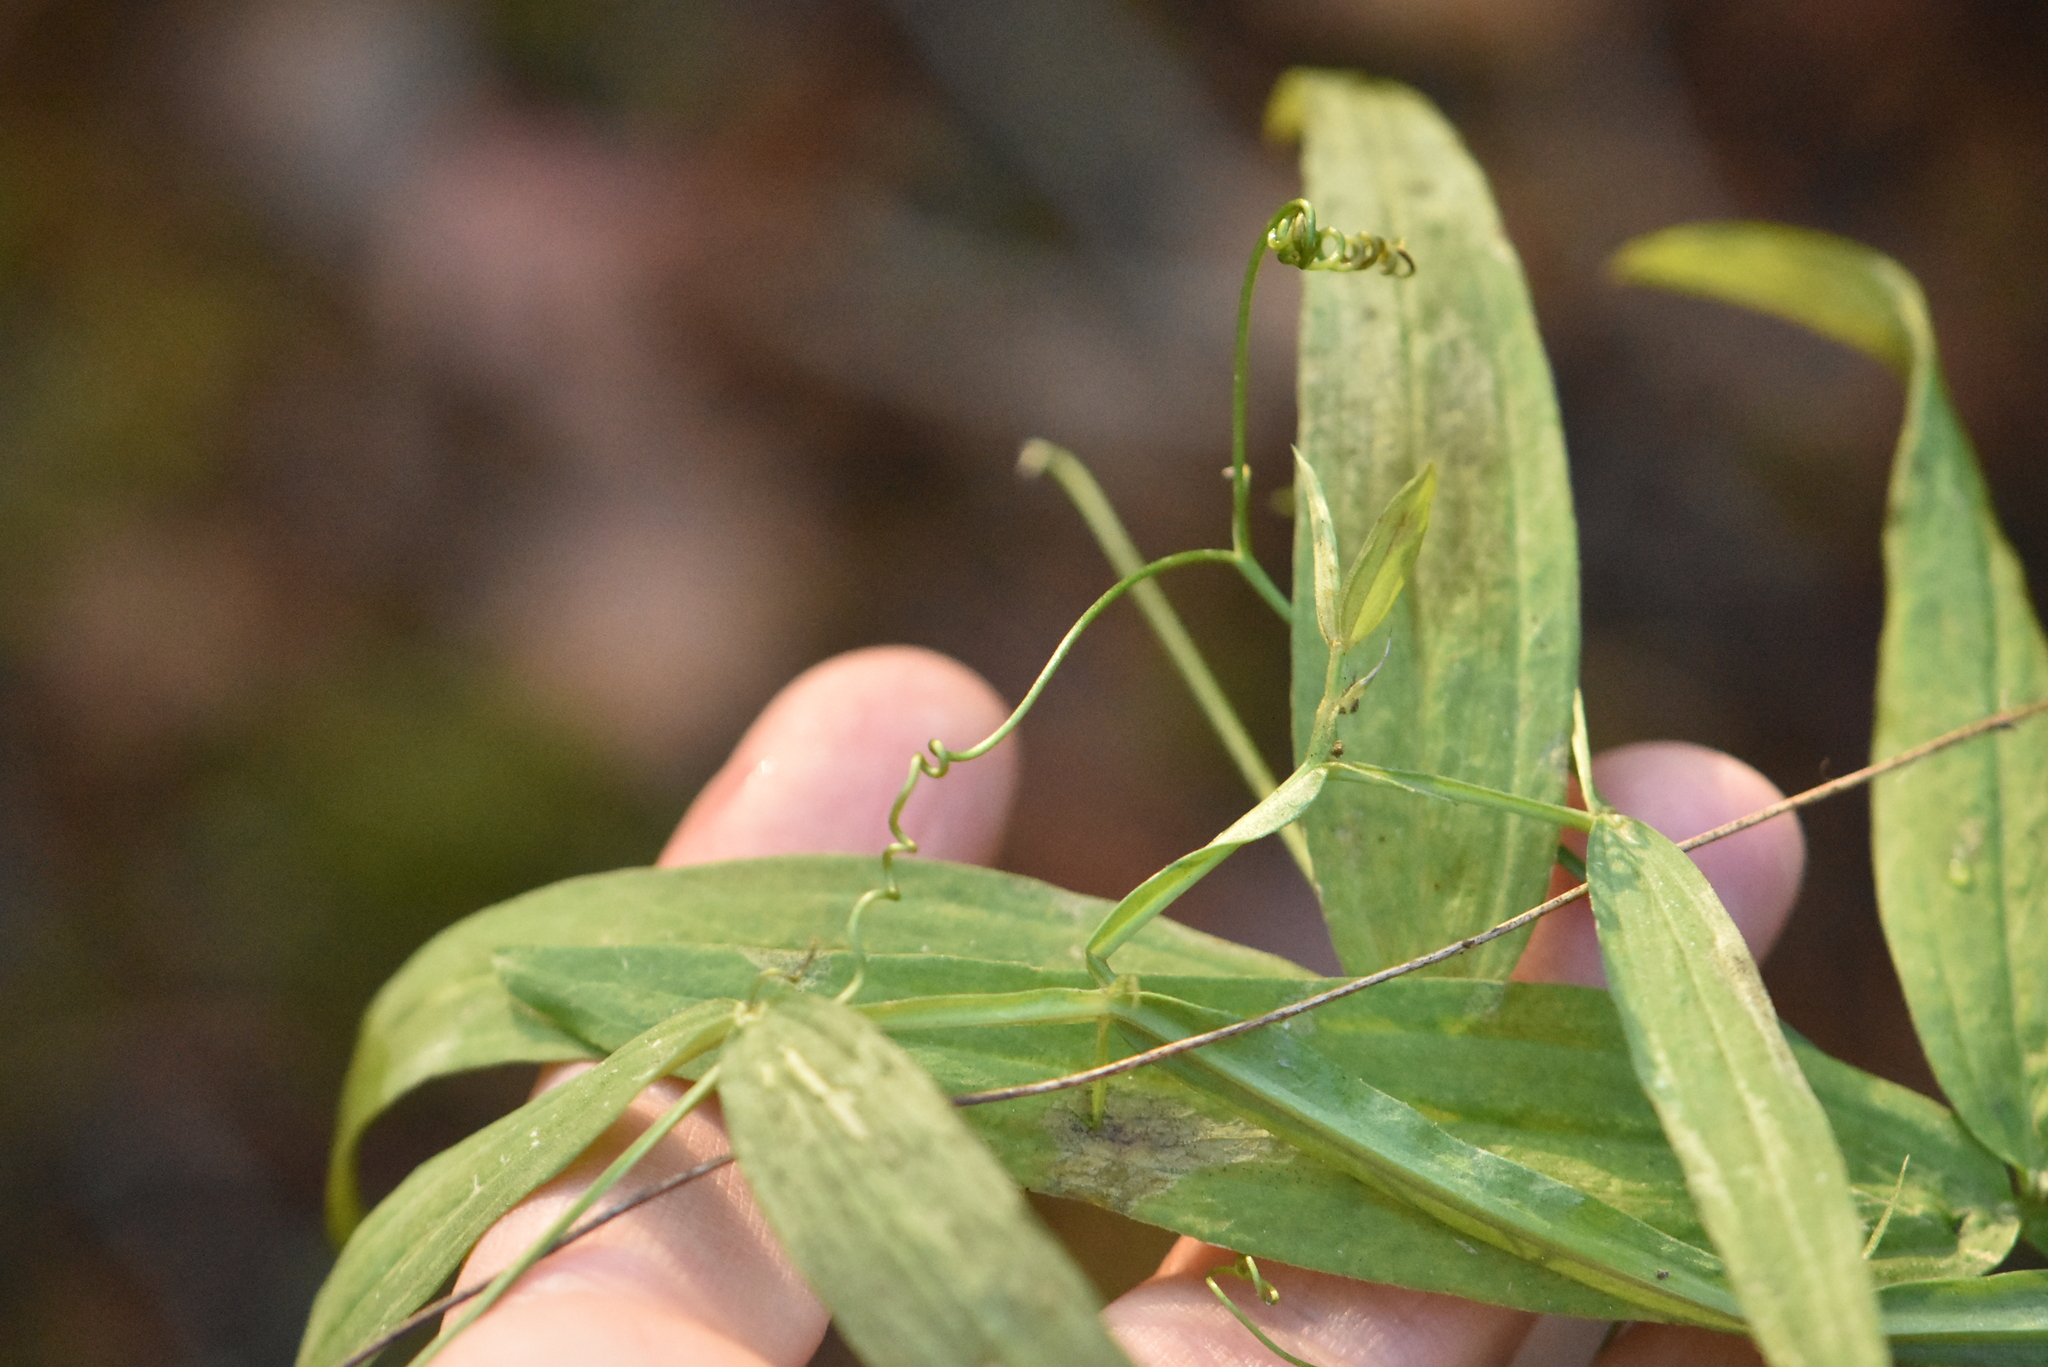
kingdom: Plantae
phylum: Tracheophyta
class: Magnoliopsida
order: Fabales
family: Fabaceae
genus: Lathyrus
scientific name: Lathyrus sylvestris
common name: Flat pea
